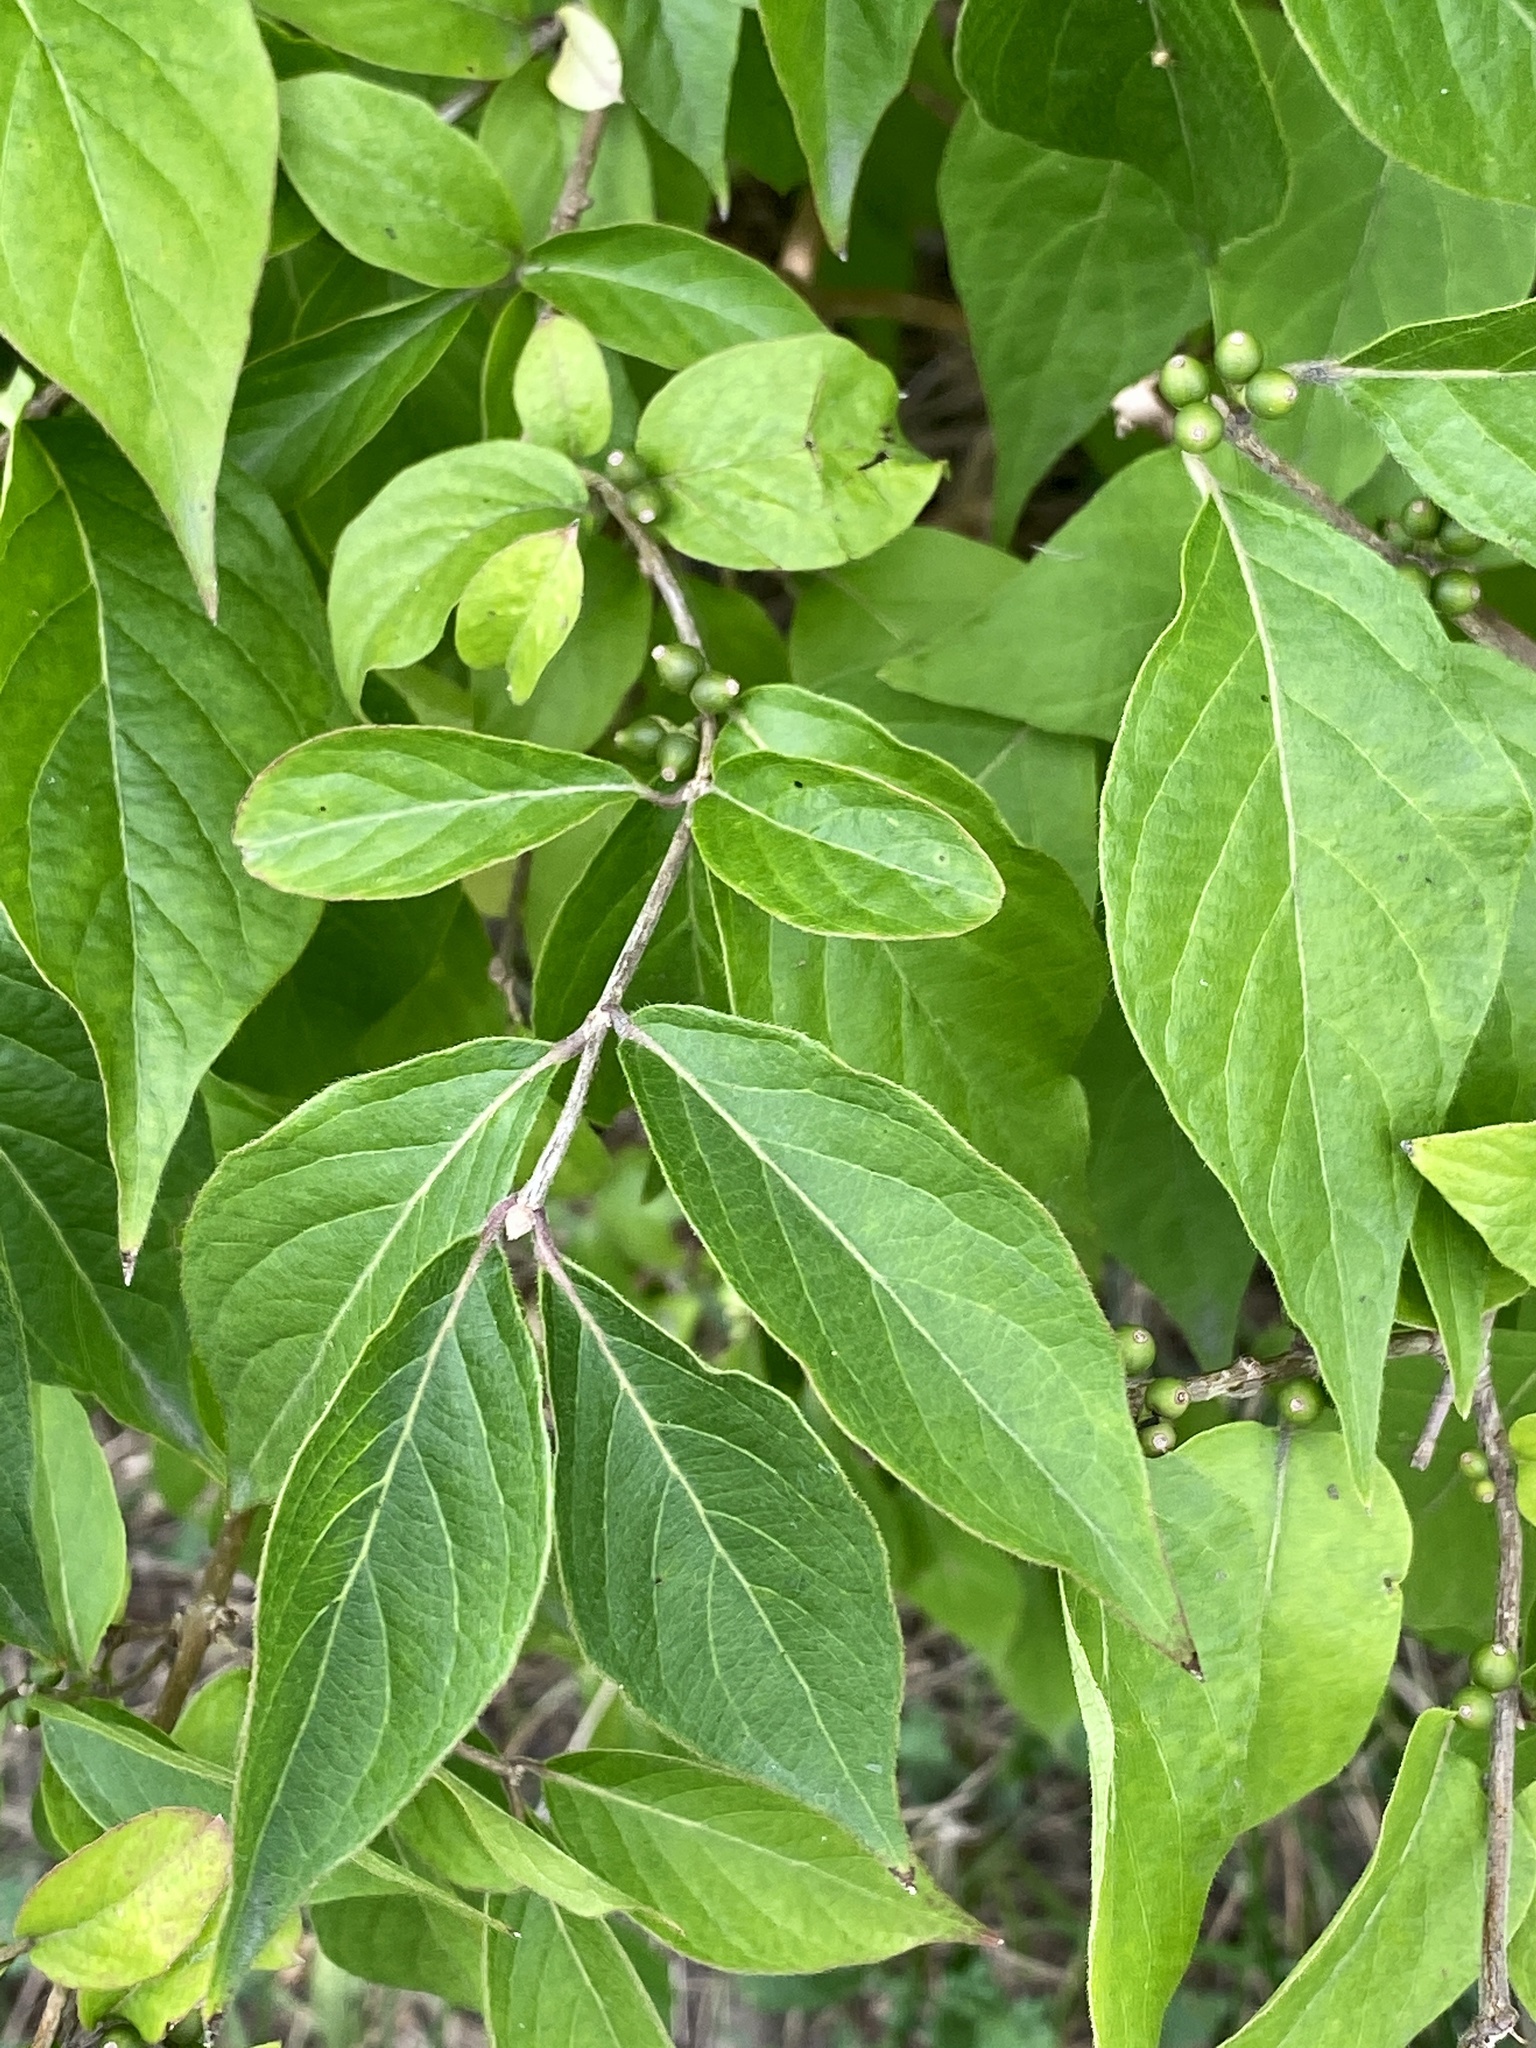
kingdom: Plantae
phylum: Tracheophyta
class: Magnoliopsida
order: Dipsacales
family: Caprifoliaceae
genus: Lonicera
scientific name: Lonicera maackii
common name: Amur honeysuckle
